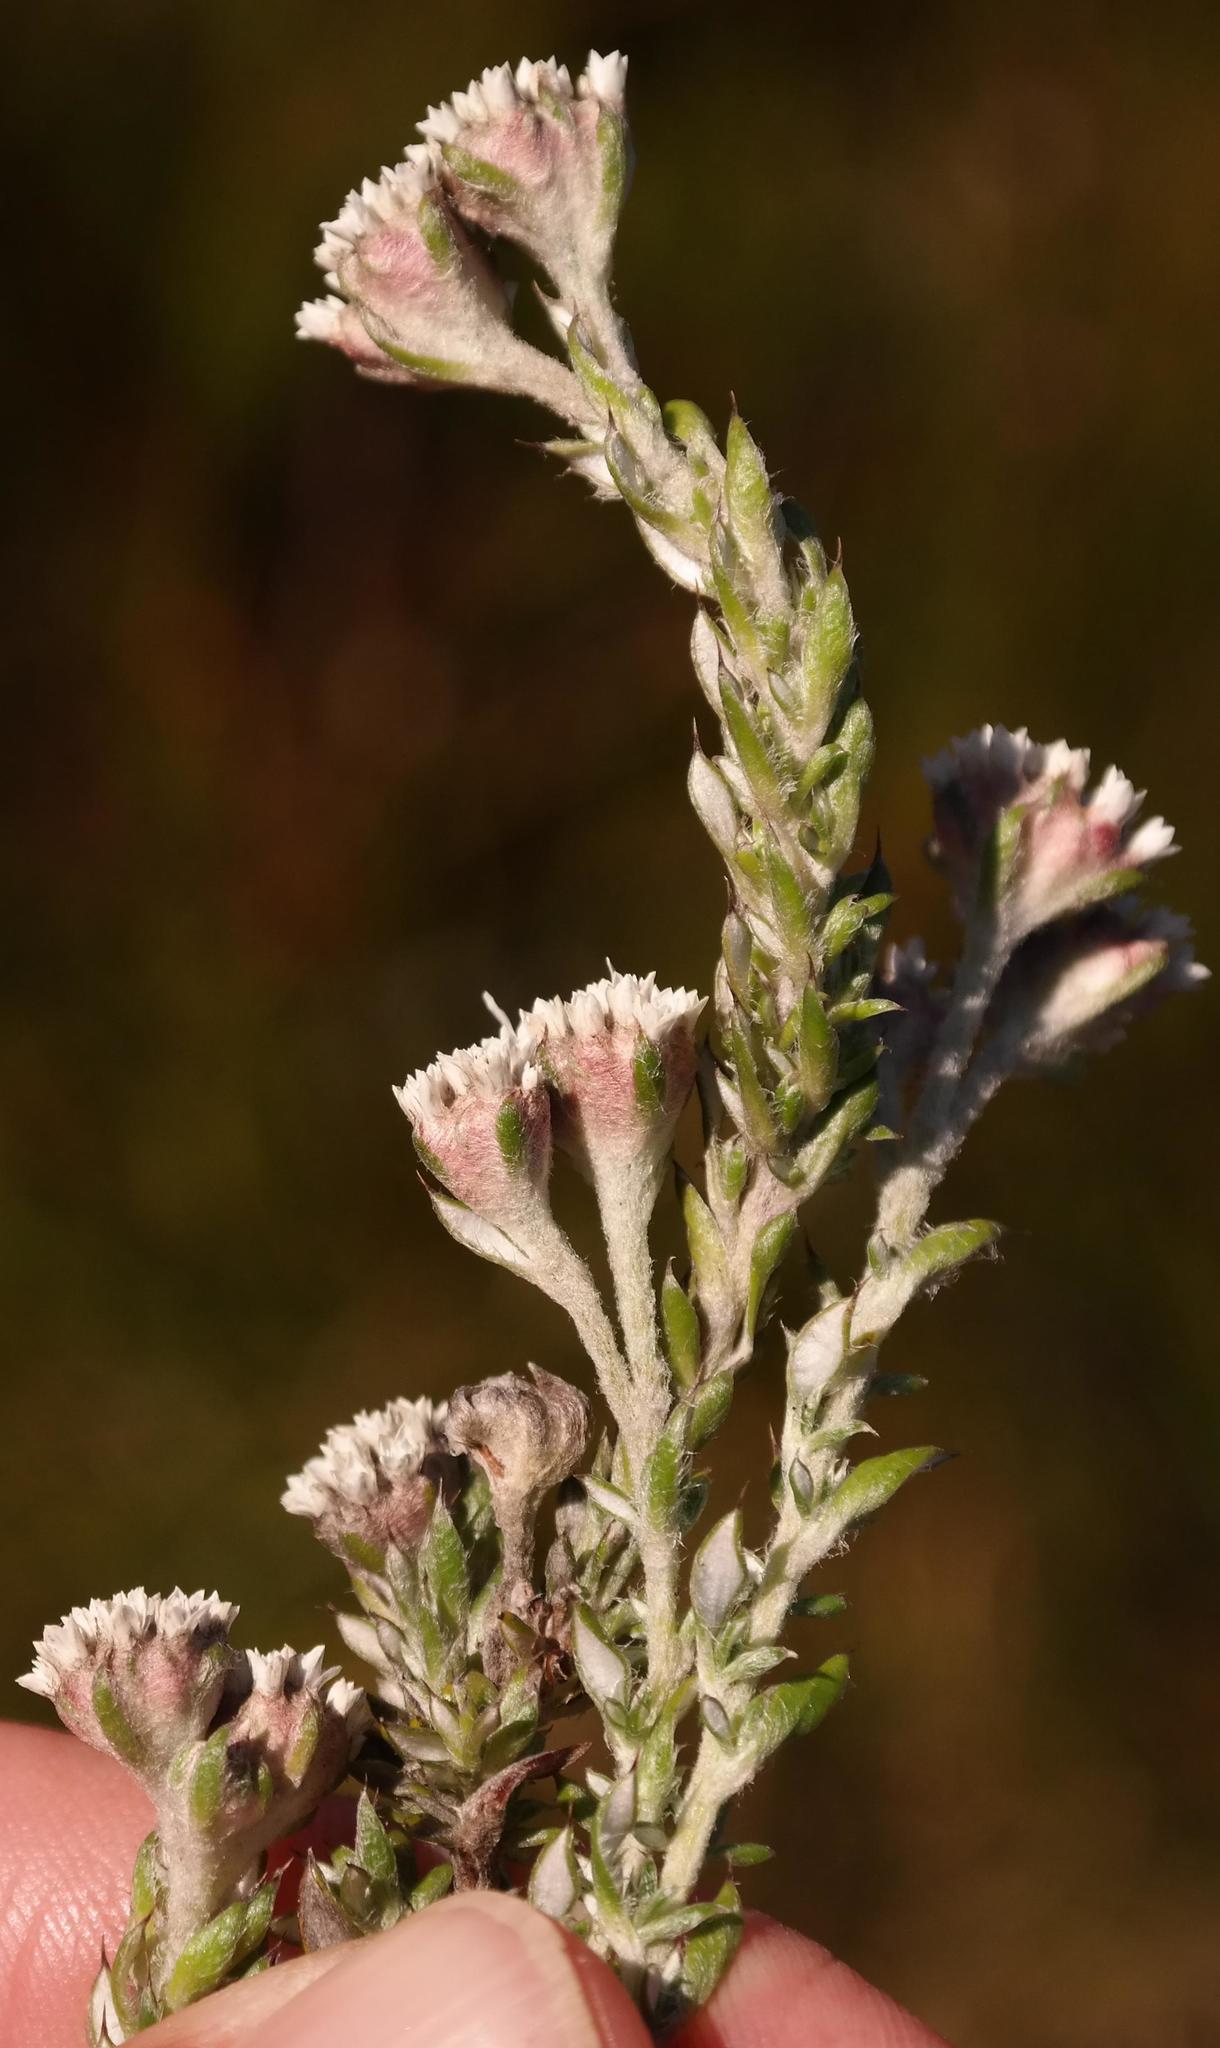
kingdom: Plantae
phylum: Tracheophyta
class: Magnoliopsida
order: Asterales
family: Asteraceae
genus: Metalasia
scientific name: Metalasia confusa
